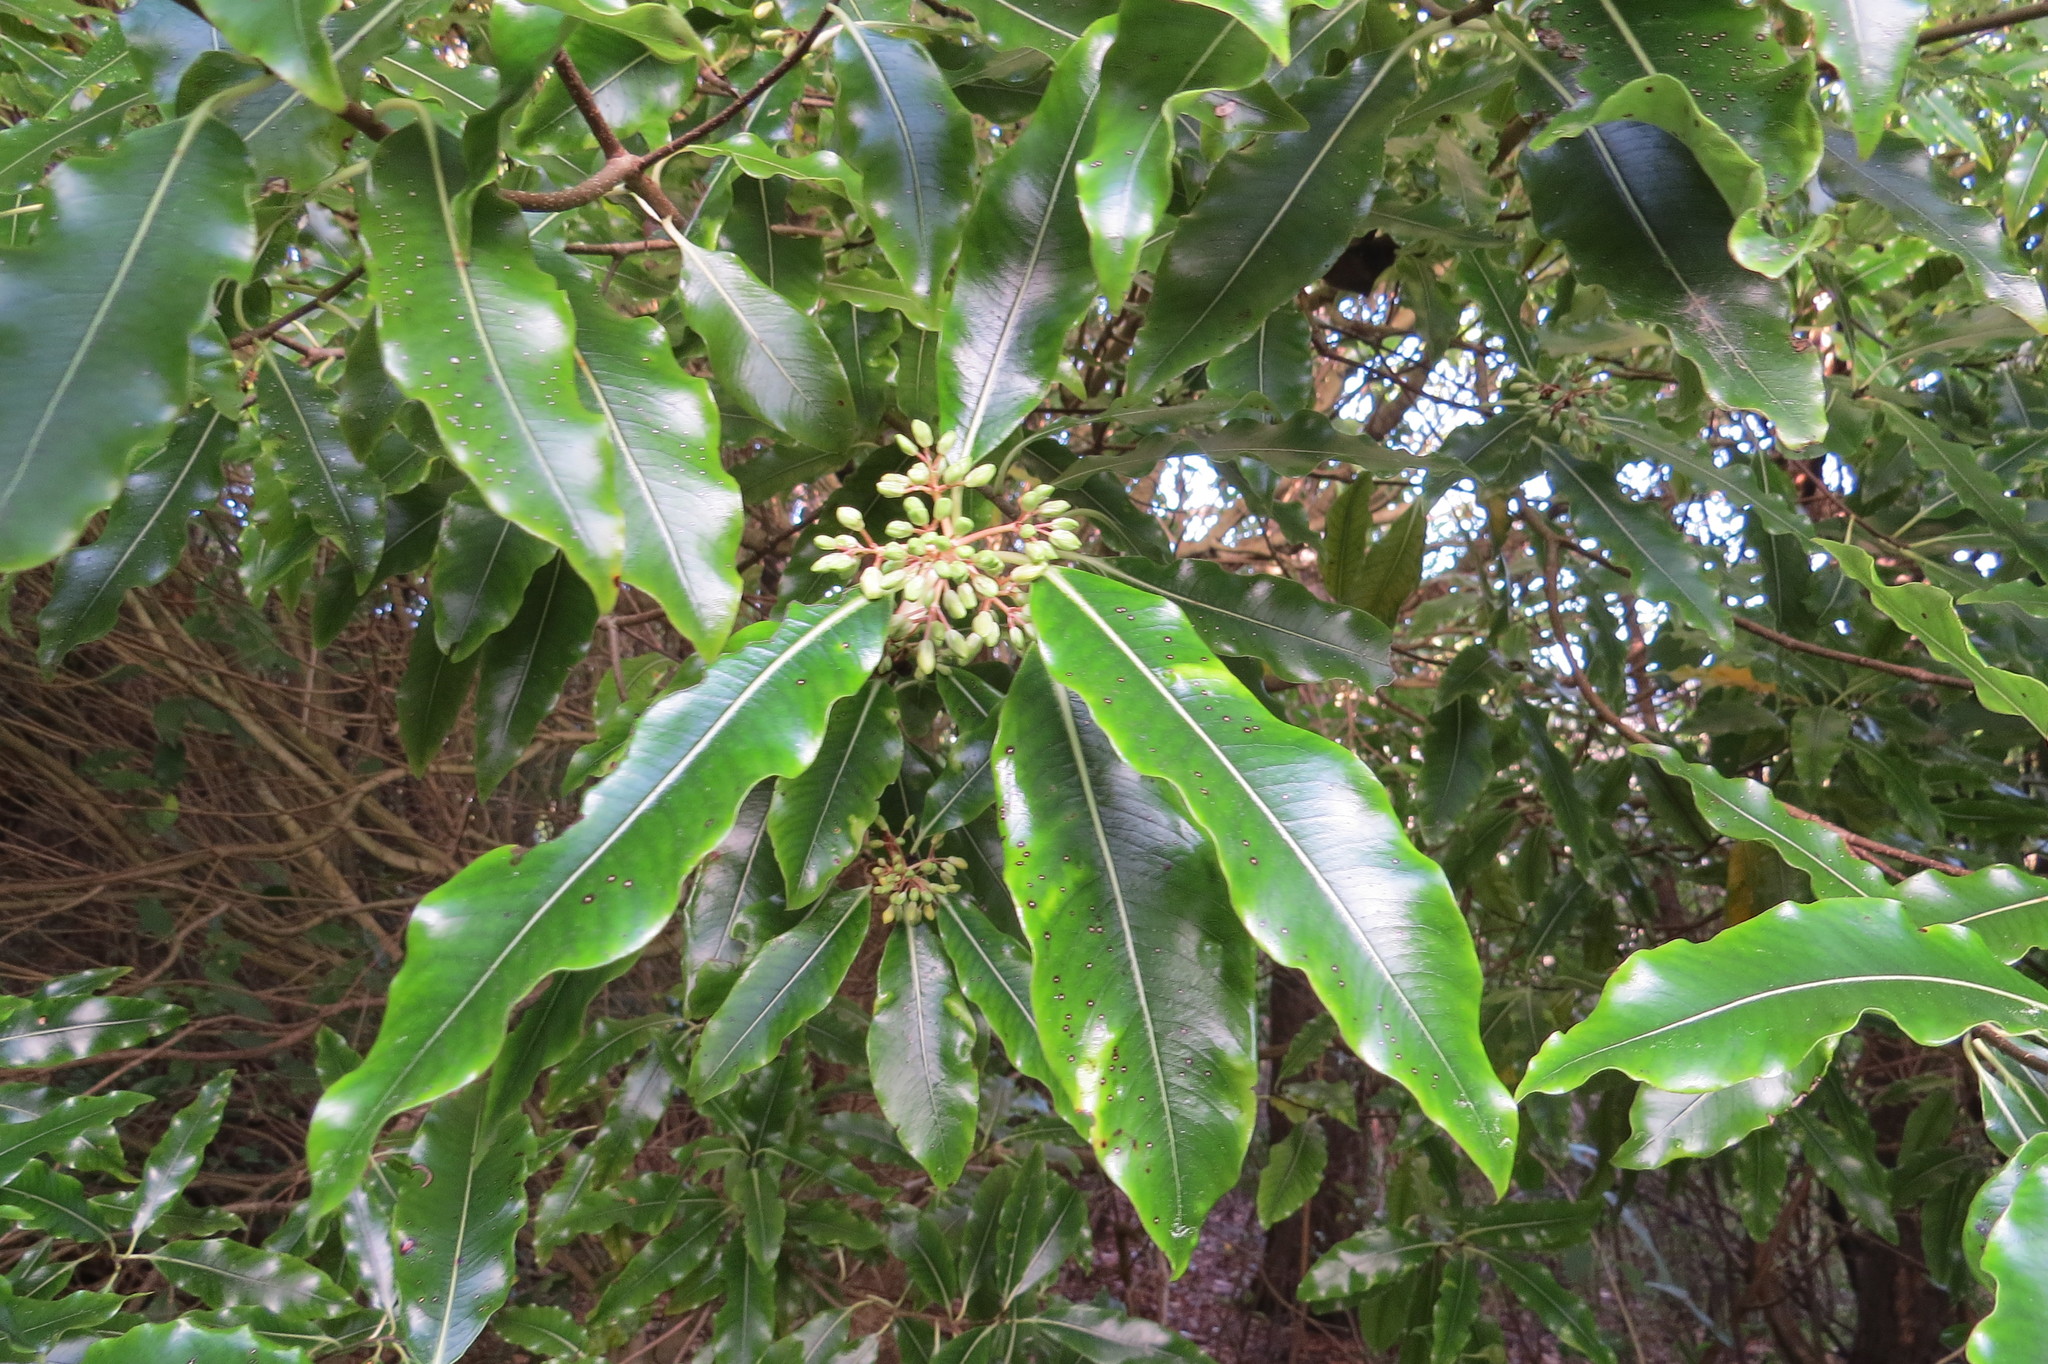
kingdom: Plantae
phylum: Tracheophyta
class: Magnoliopsida
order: Apiales
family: Pittosporaceae
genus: Pittosporum
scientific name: Pittosporum eugenioides
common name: Lemonwood
